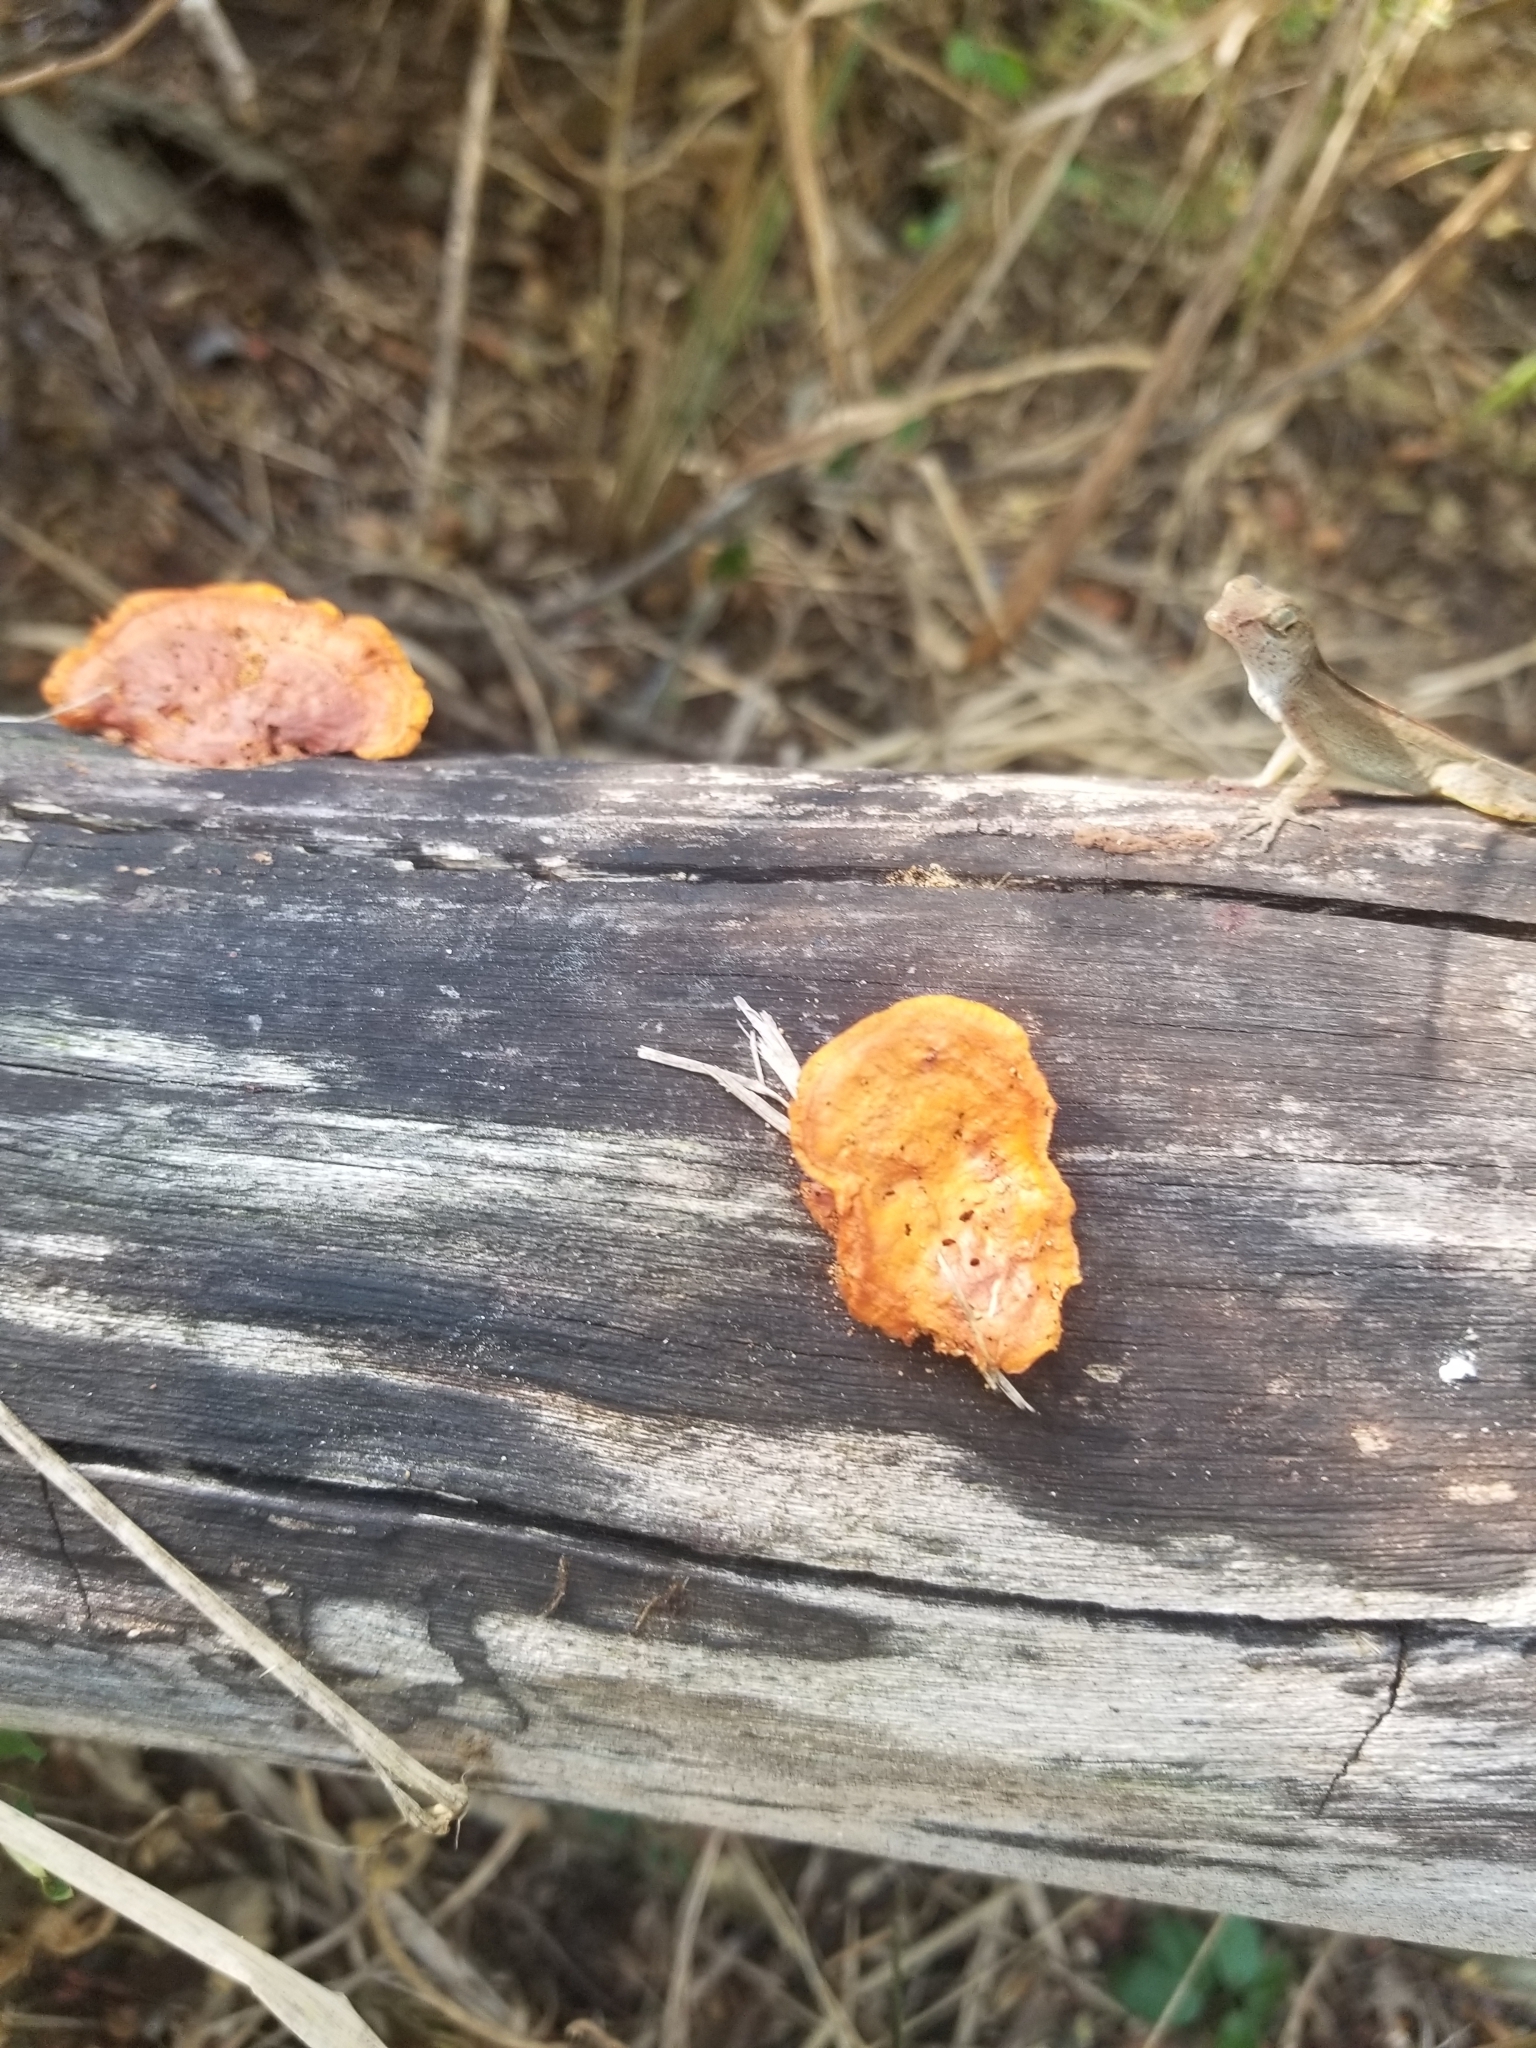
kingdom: Fungi
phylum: Basidiomycota
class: Agaricomycetes
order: Polyporales
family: Polyporaceae
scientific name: Polyporaceae
